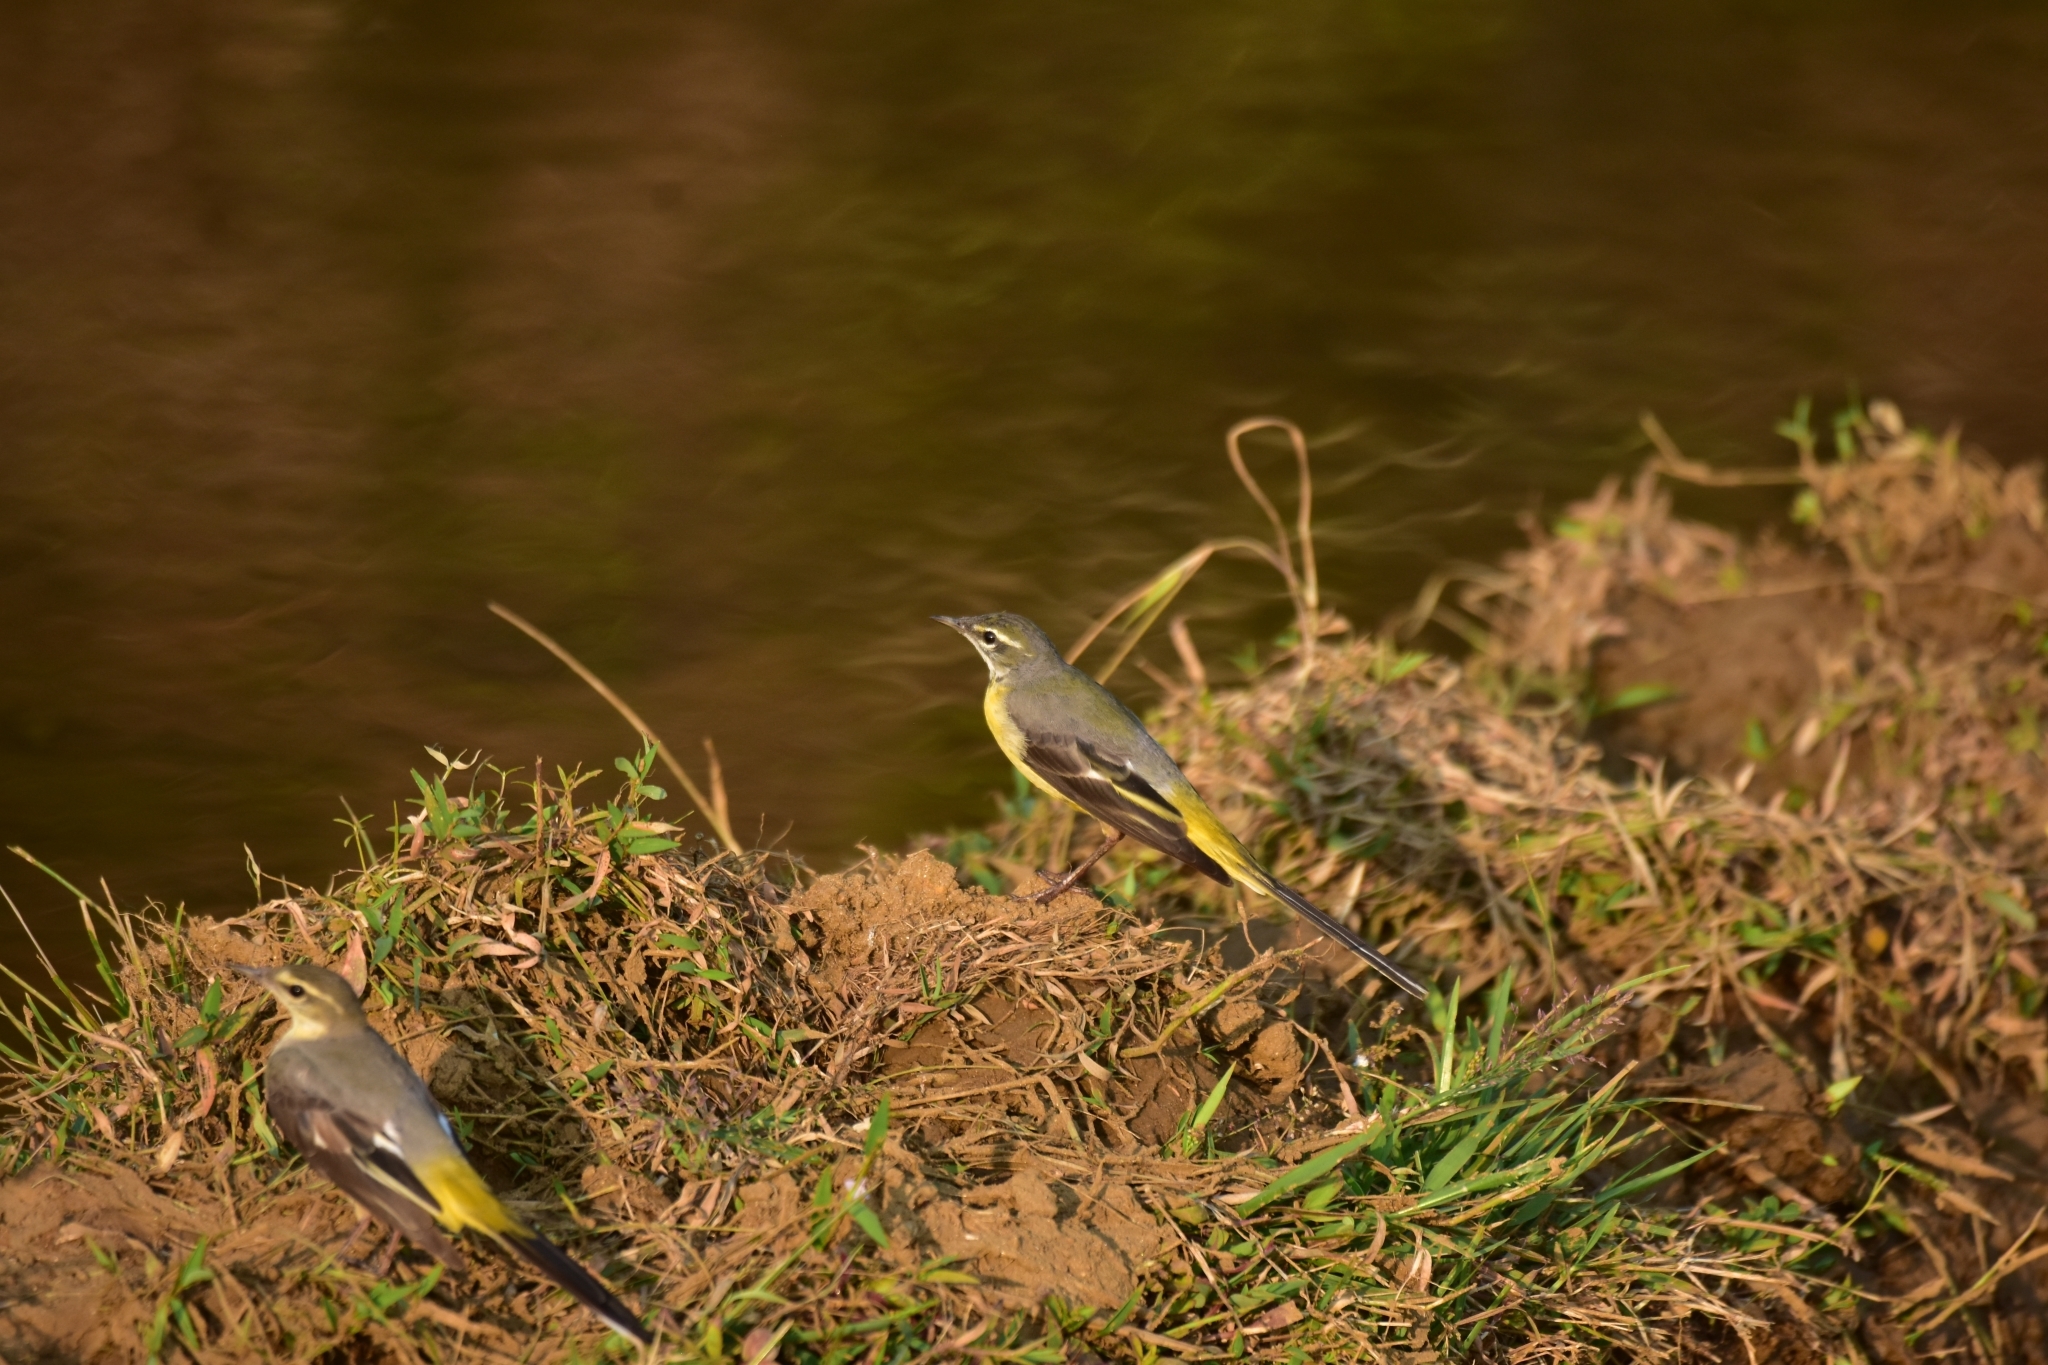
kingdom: Animalia
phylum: Chordata
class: Aves
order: Passeriformes
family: Motacillidae
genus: Motacilla
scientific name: Motacilla cinerea
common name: Grey wagtail
